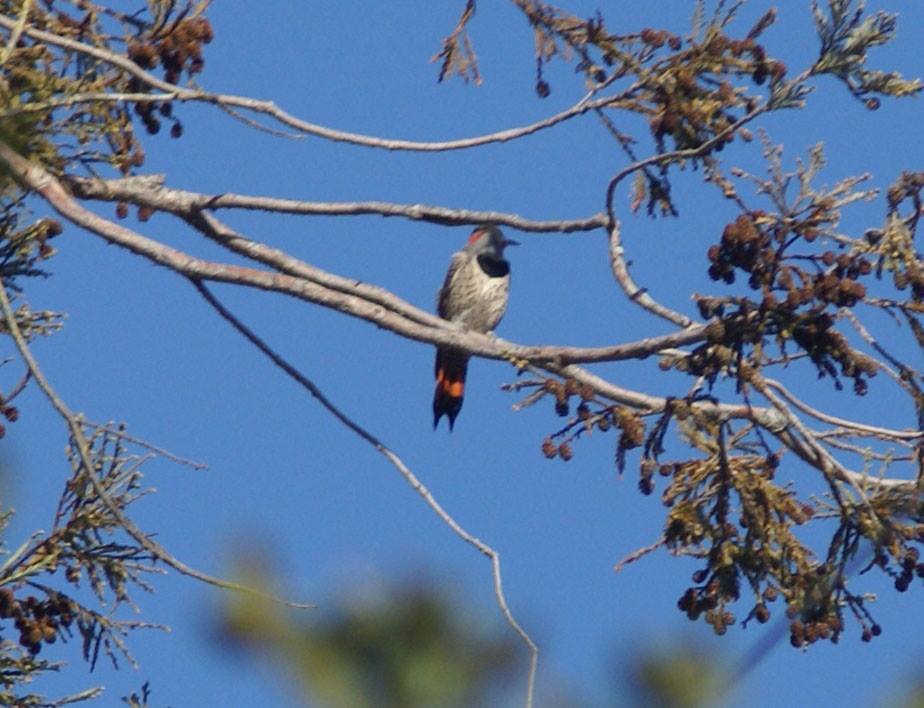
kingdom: Animalia
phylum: Chordata
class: Aves
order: Piciformes
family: Picidae
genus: Colaptes
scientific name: Colaptes auratus
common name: Northern flicker
